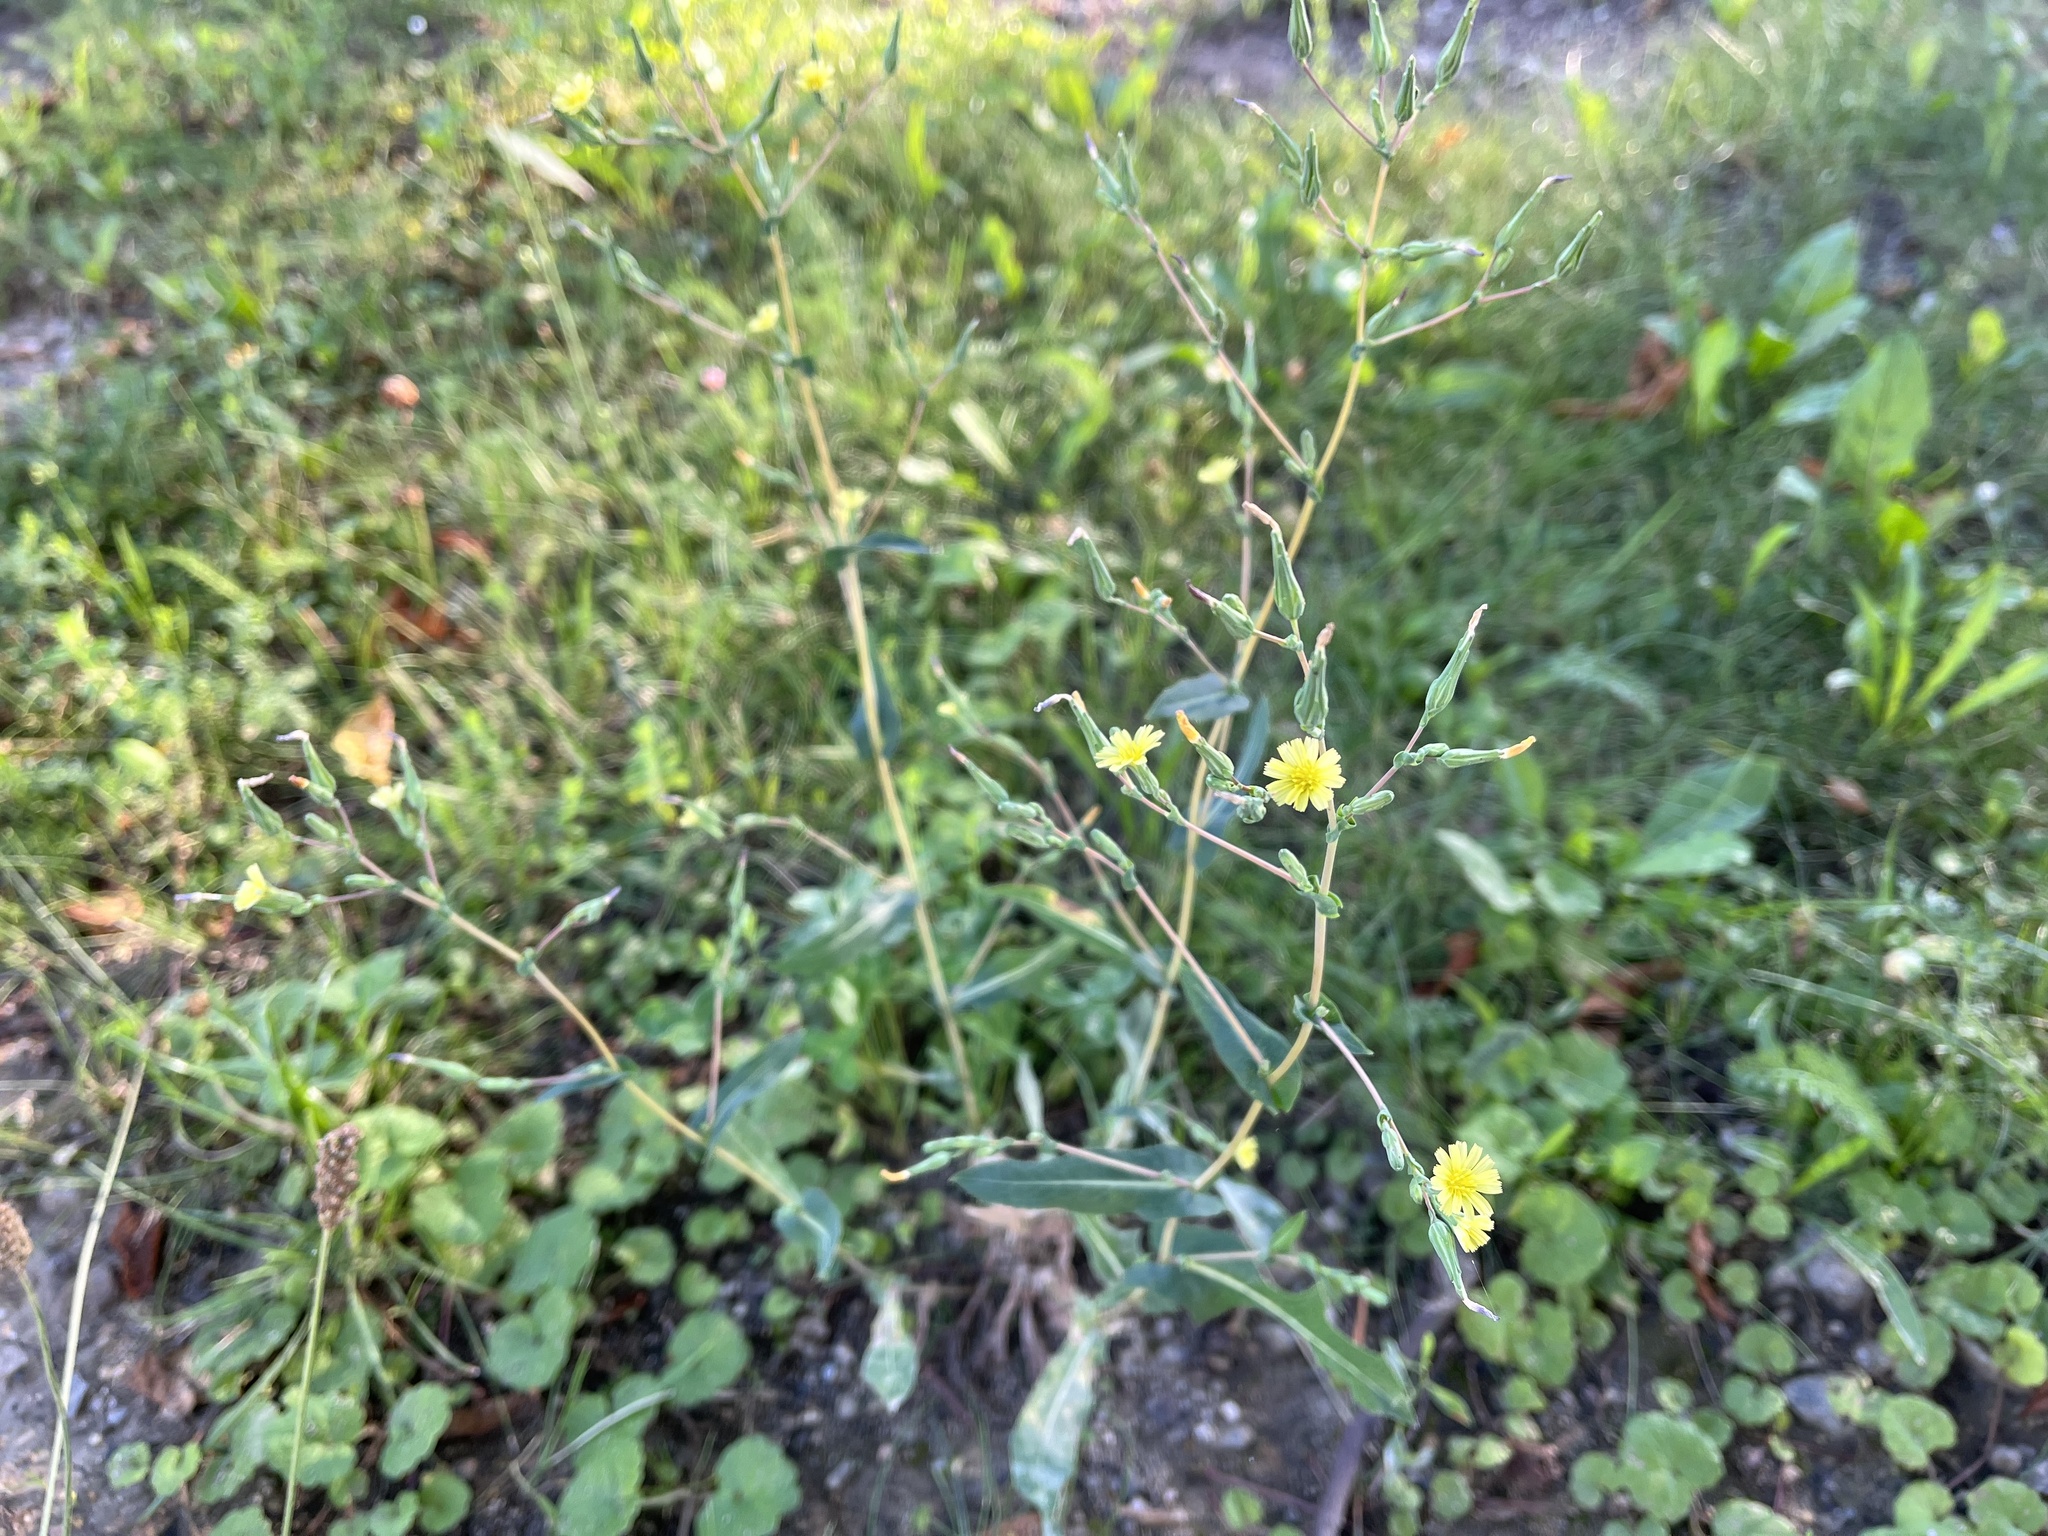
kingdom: Plantae
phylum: Tracheophyta
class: Magnoliopsida
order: Asterales
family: Asteraceae
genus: Lactuca
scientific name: Lactuca serriola
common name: Prickly lettuce
